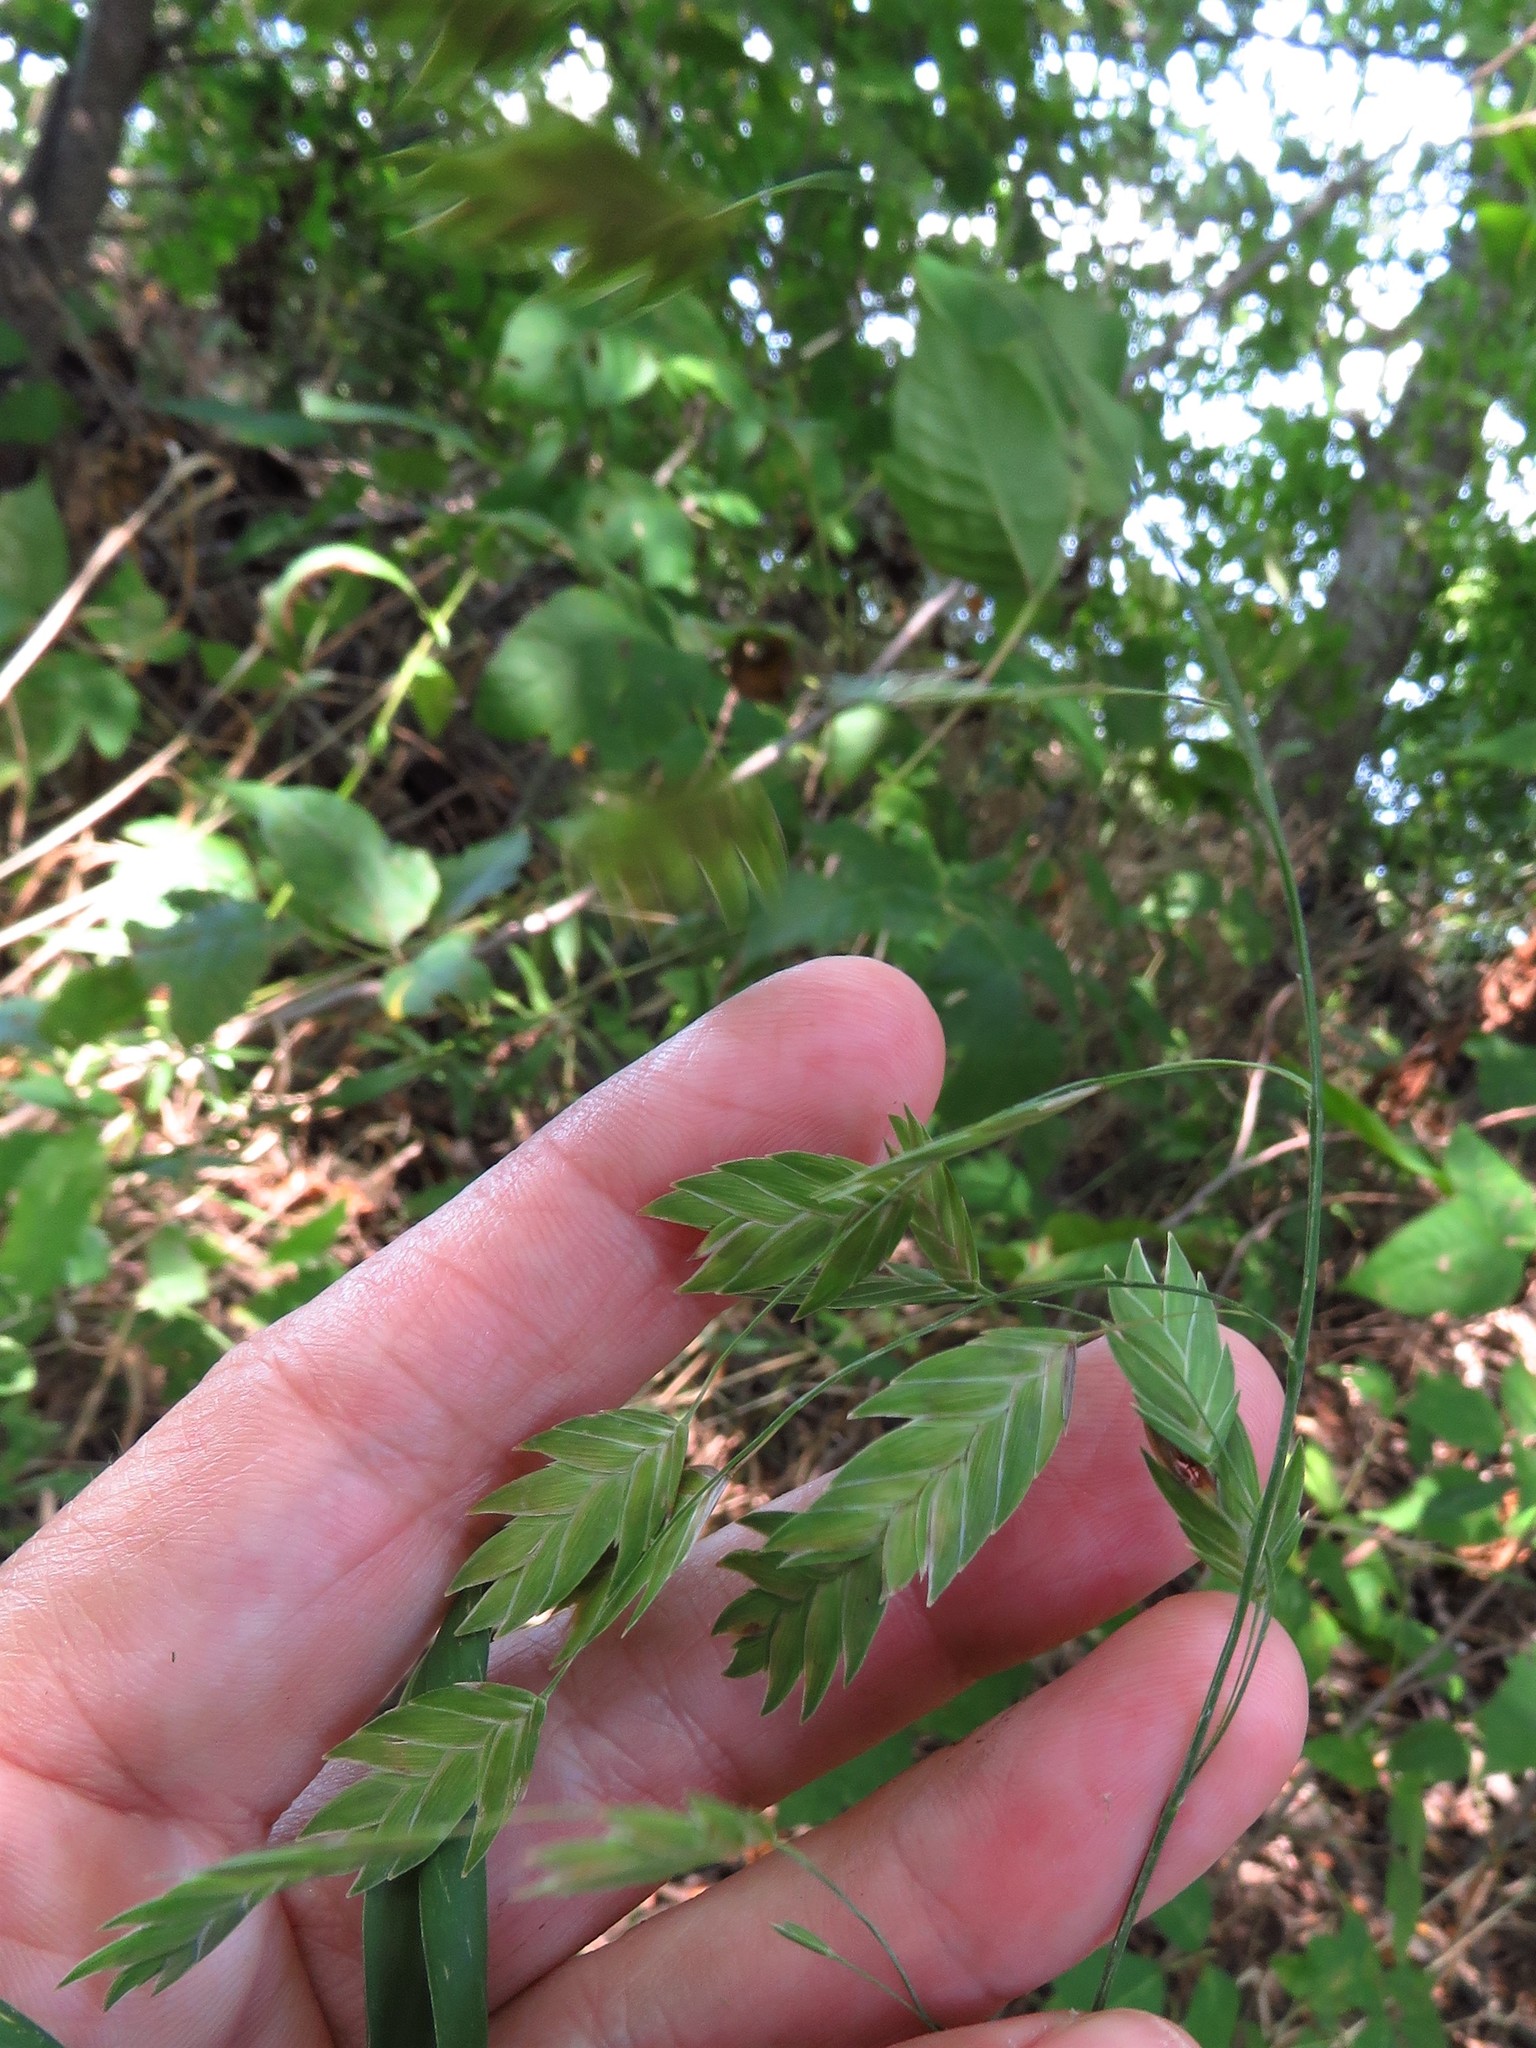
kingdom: Plantae
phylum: Tracheophyta
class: Liliopsida
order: Poales
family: Poaceae
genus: Chasmanthium
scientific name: Chasmanthium latifolium
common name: Broad-leaved chasmanthium
